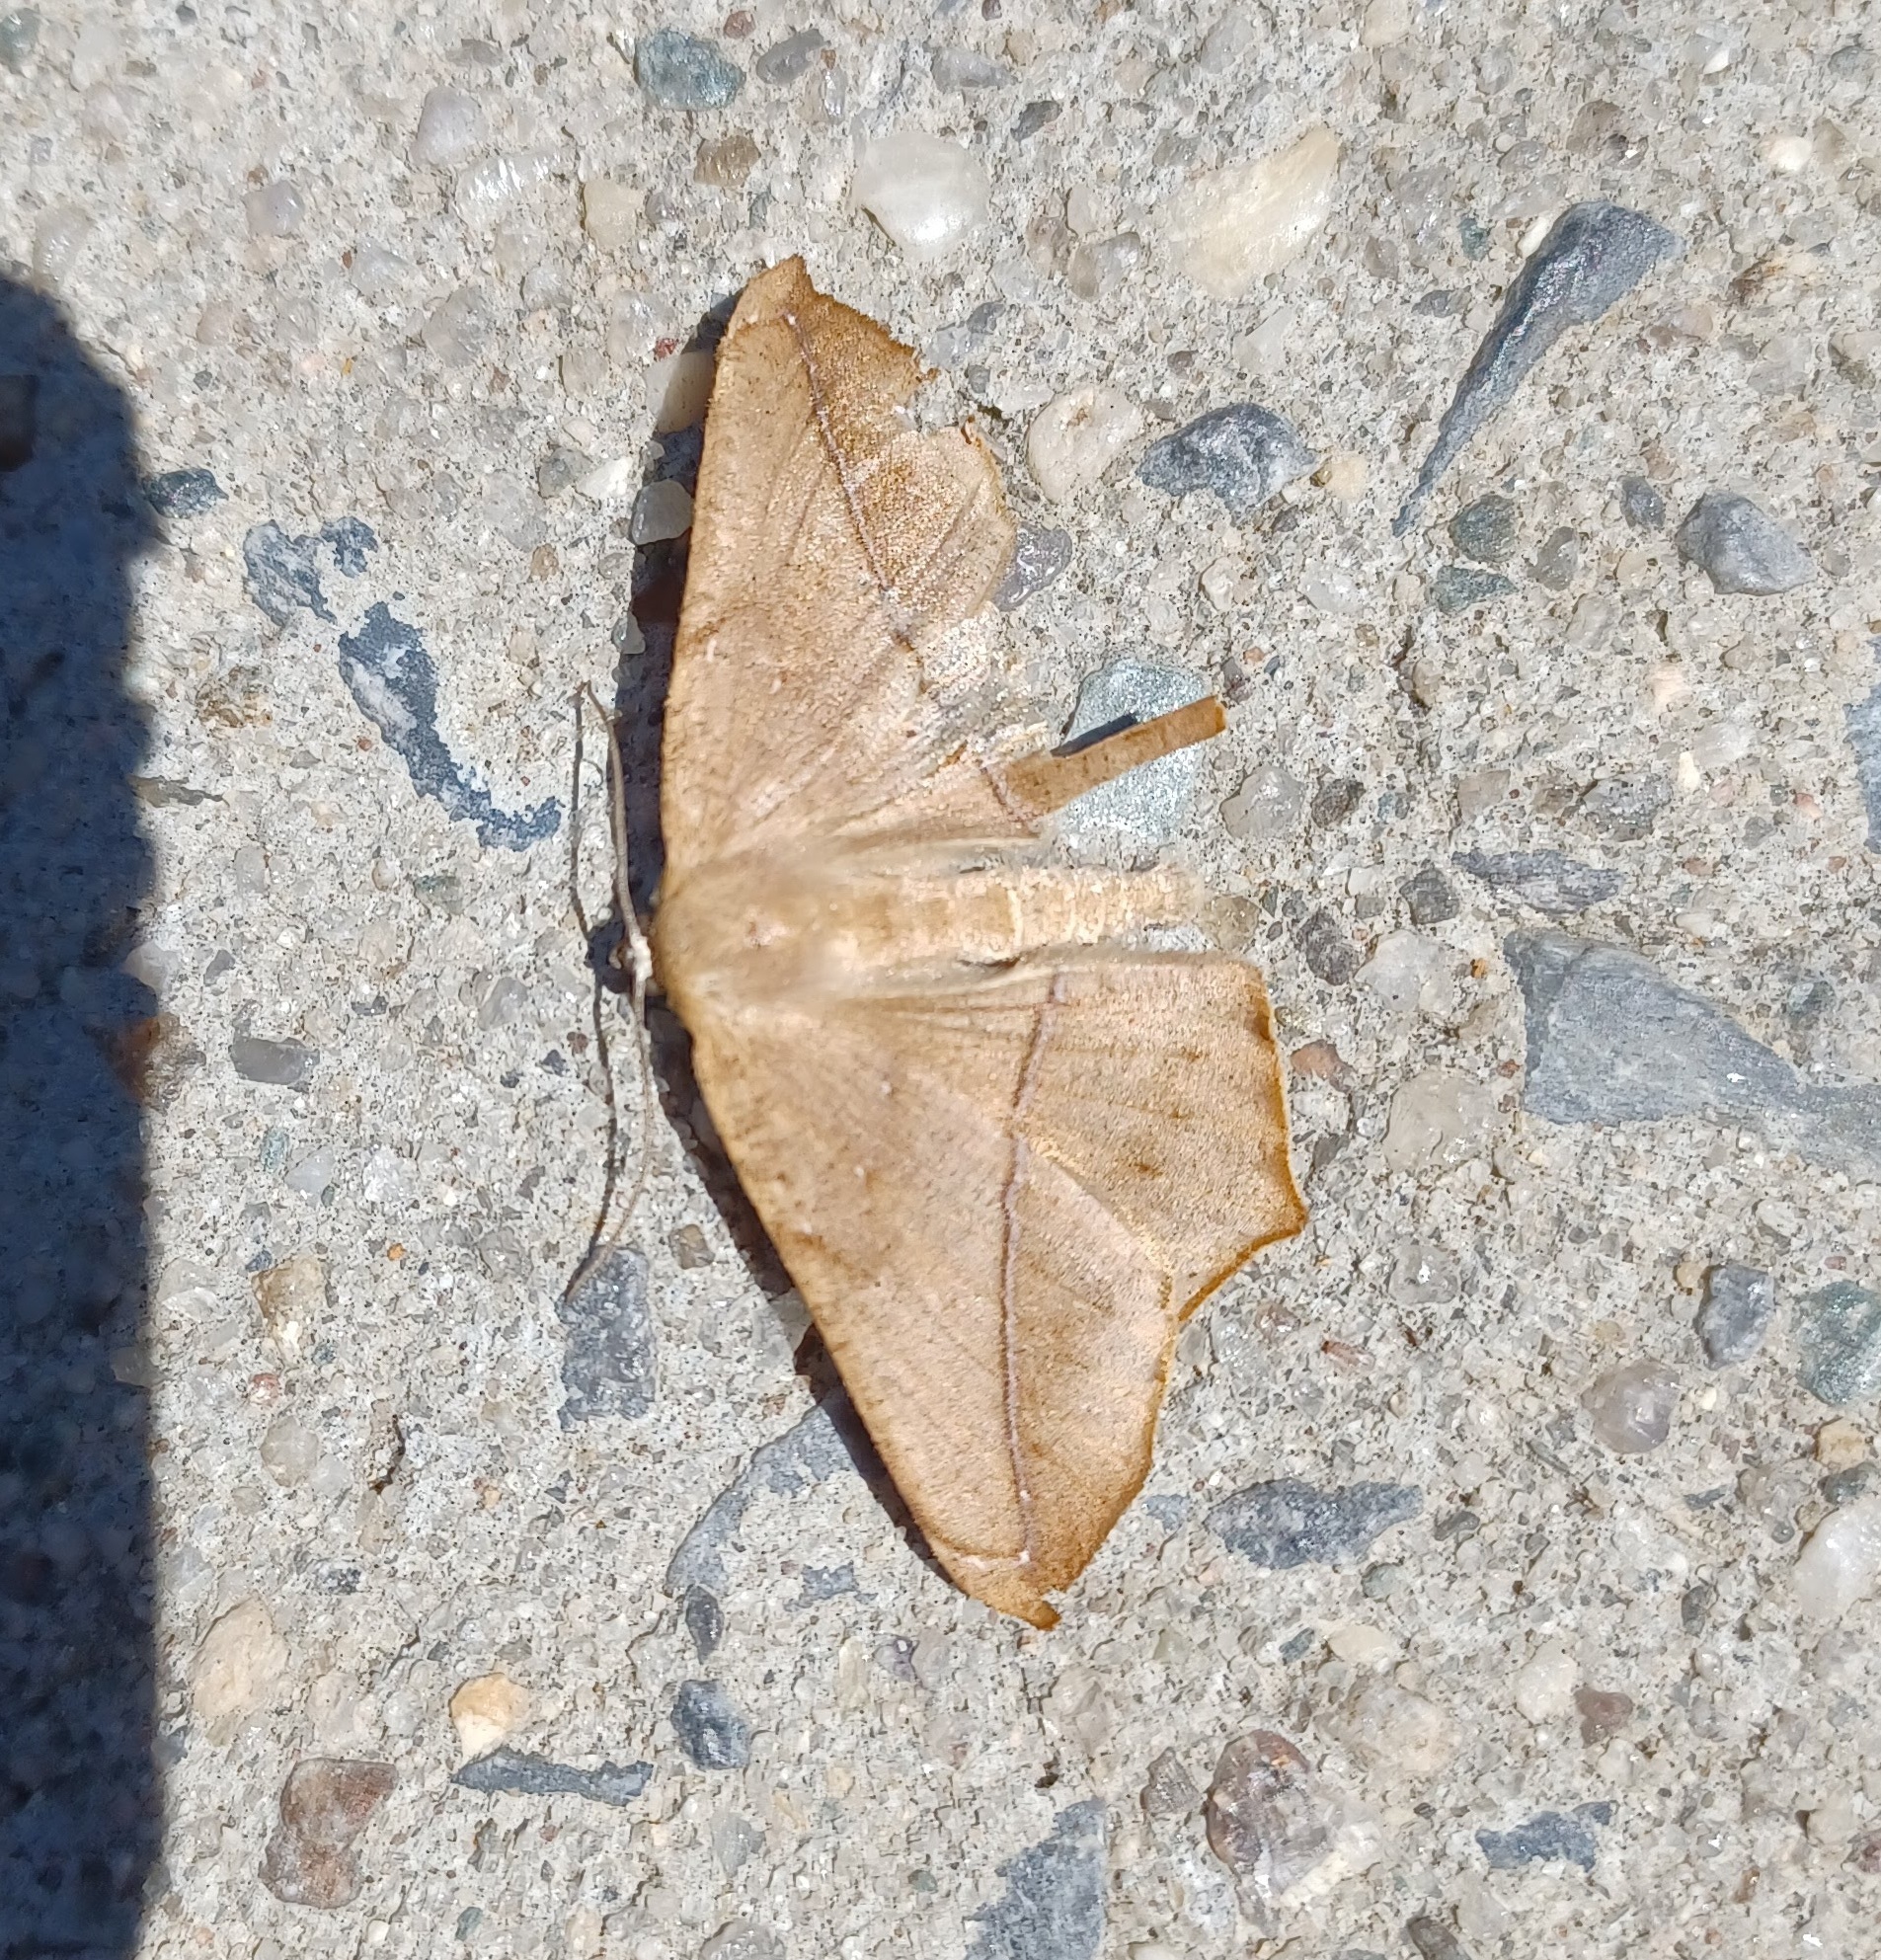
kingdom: Animalia
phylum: Arthropoda
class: Insecta
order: Lepidoptera
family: Geometridae
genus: Prochoerodes
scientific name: Prochoerodes lineola
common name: Large maple spanworm
